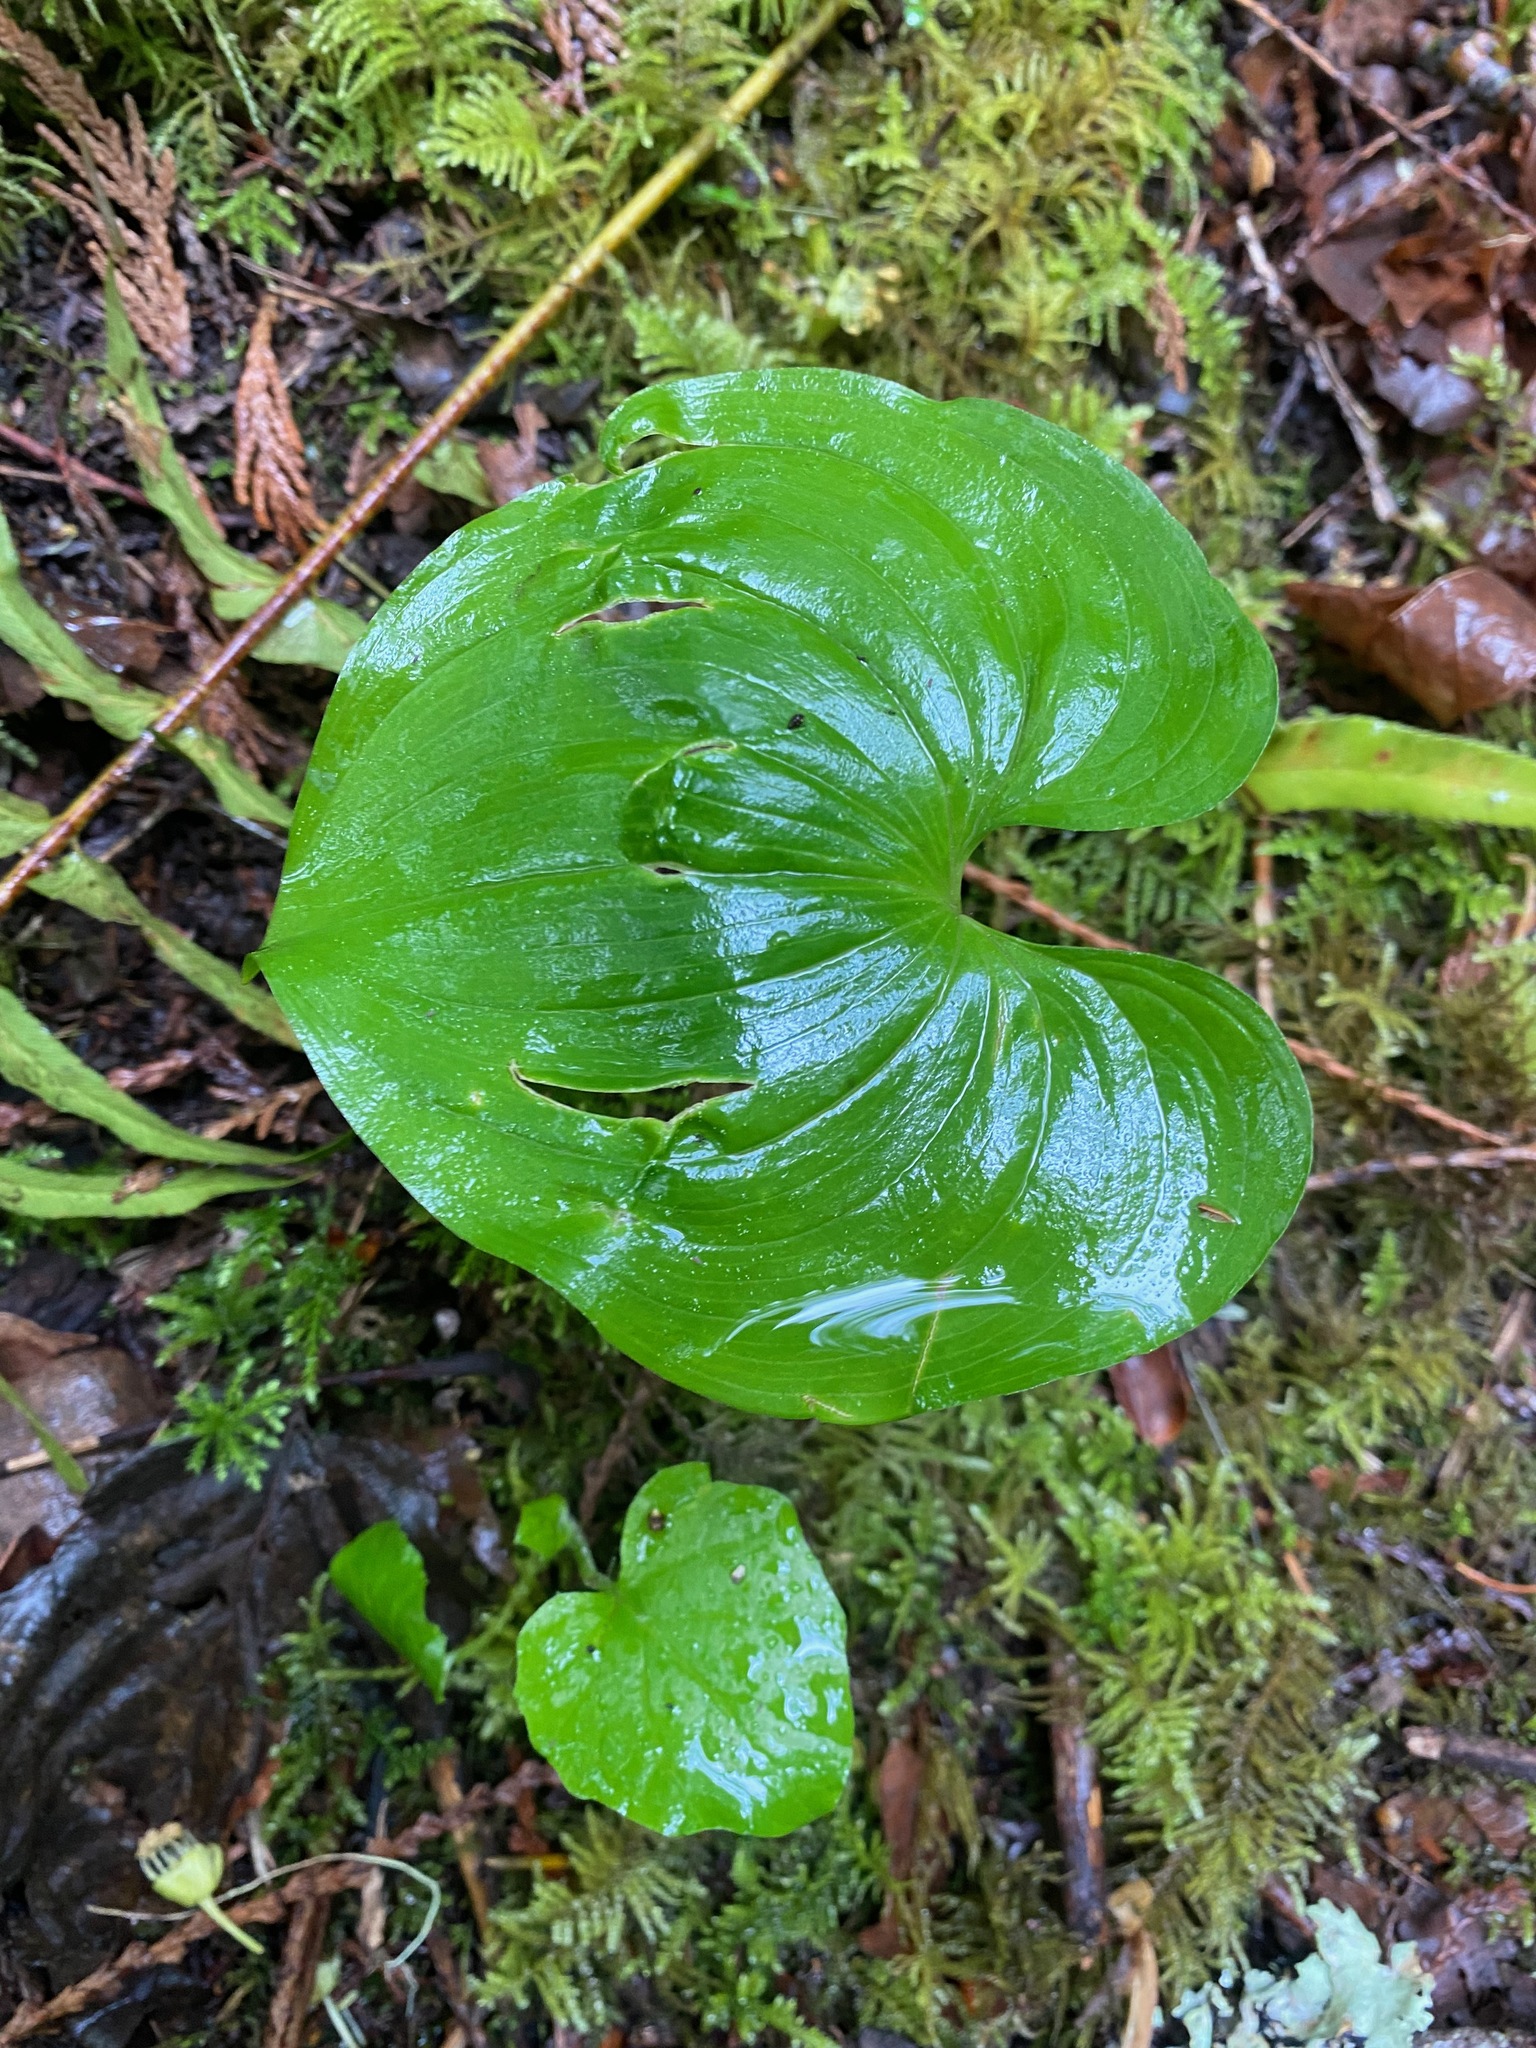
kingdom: Plantae
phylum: Tracheophyta
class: Liliopsida
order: Asparagales
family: Asparagaceae
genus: Maianthemum
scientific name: Maianthemum dilatatum
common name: False lily-of-the-valley
